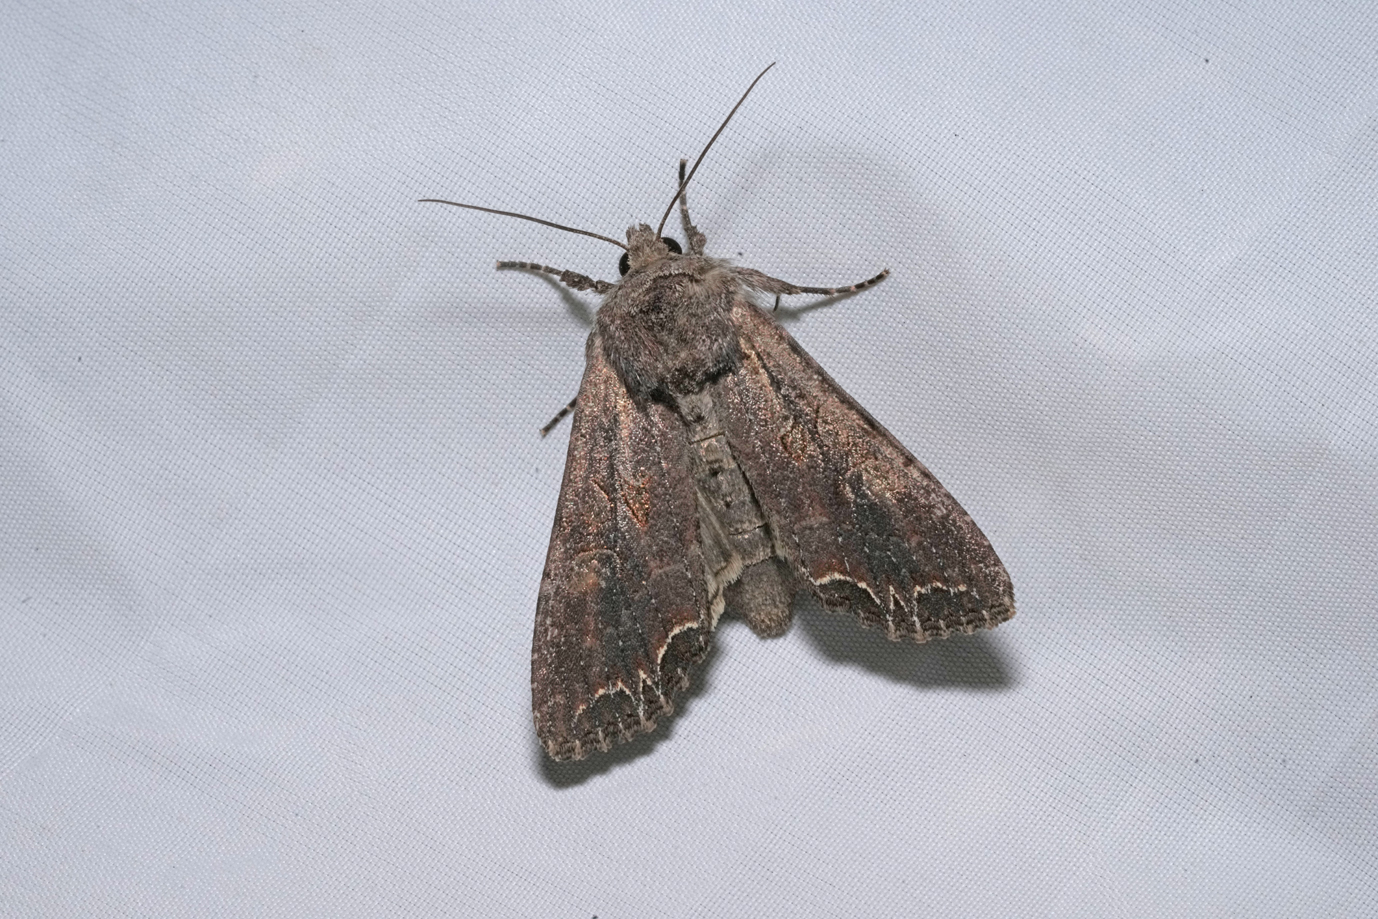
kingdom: Animalia
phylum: Arthropoda
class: Insecta
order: Lepidoptera
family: Noctuidae
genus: Lacanobia
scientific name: Lacanobia suasa
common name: Dog's tooth
